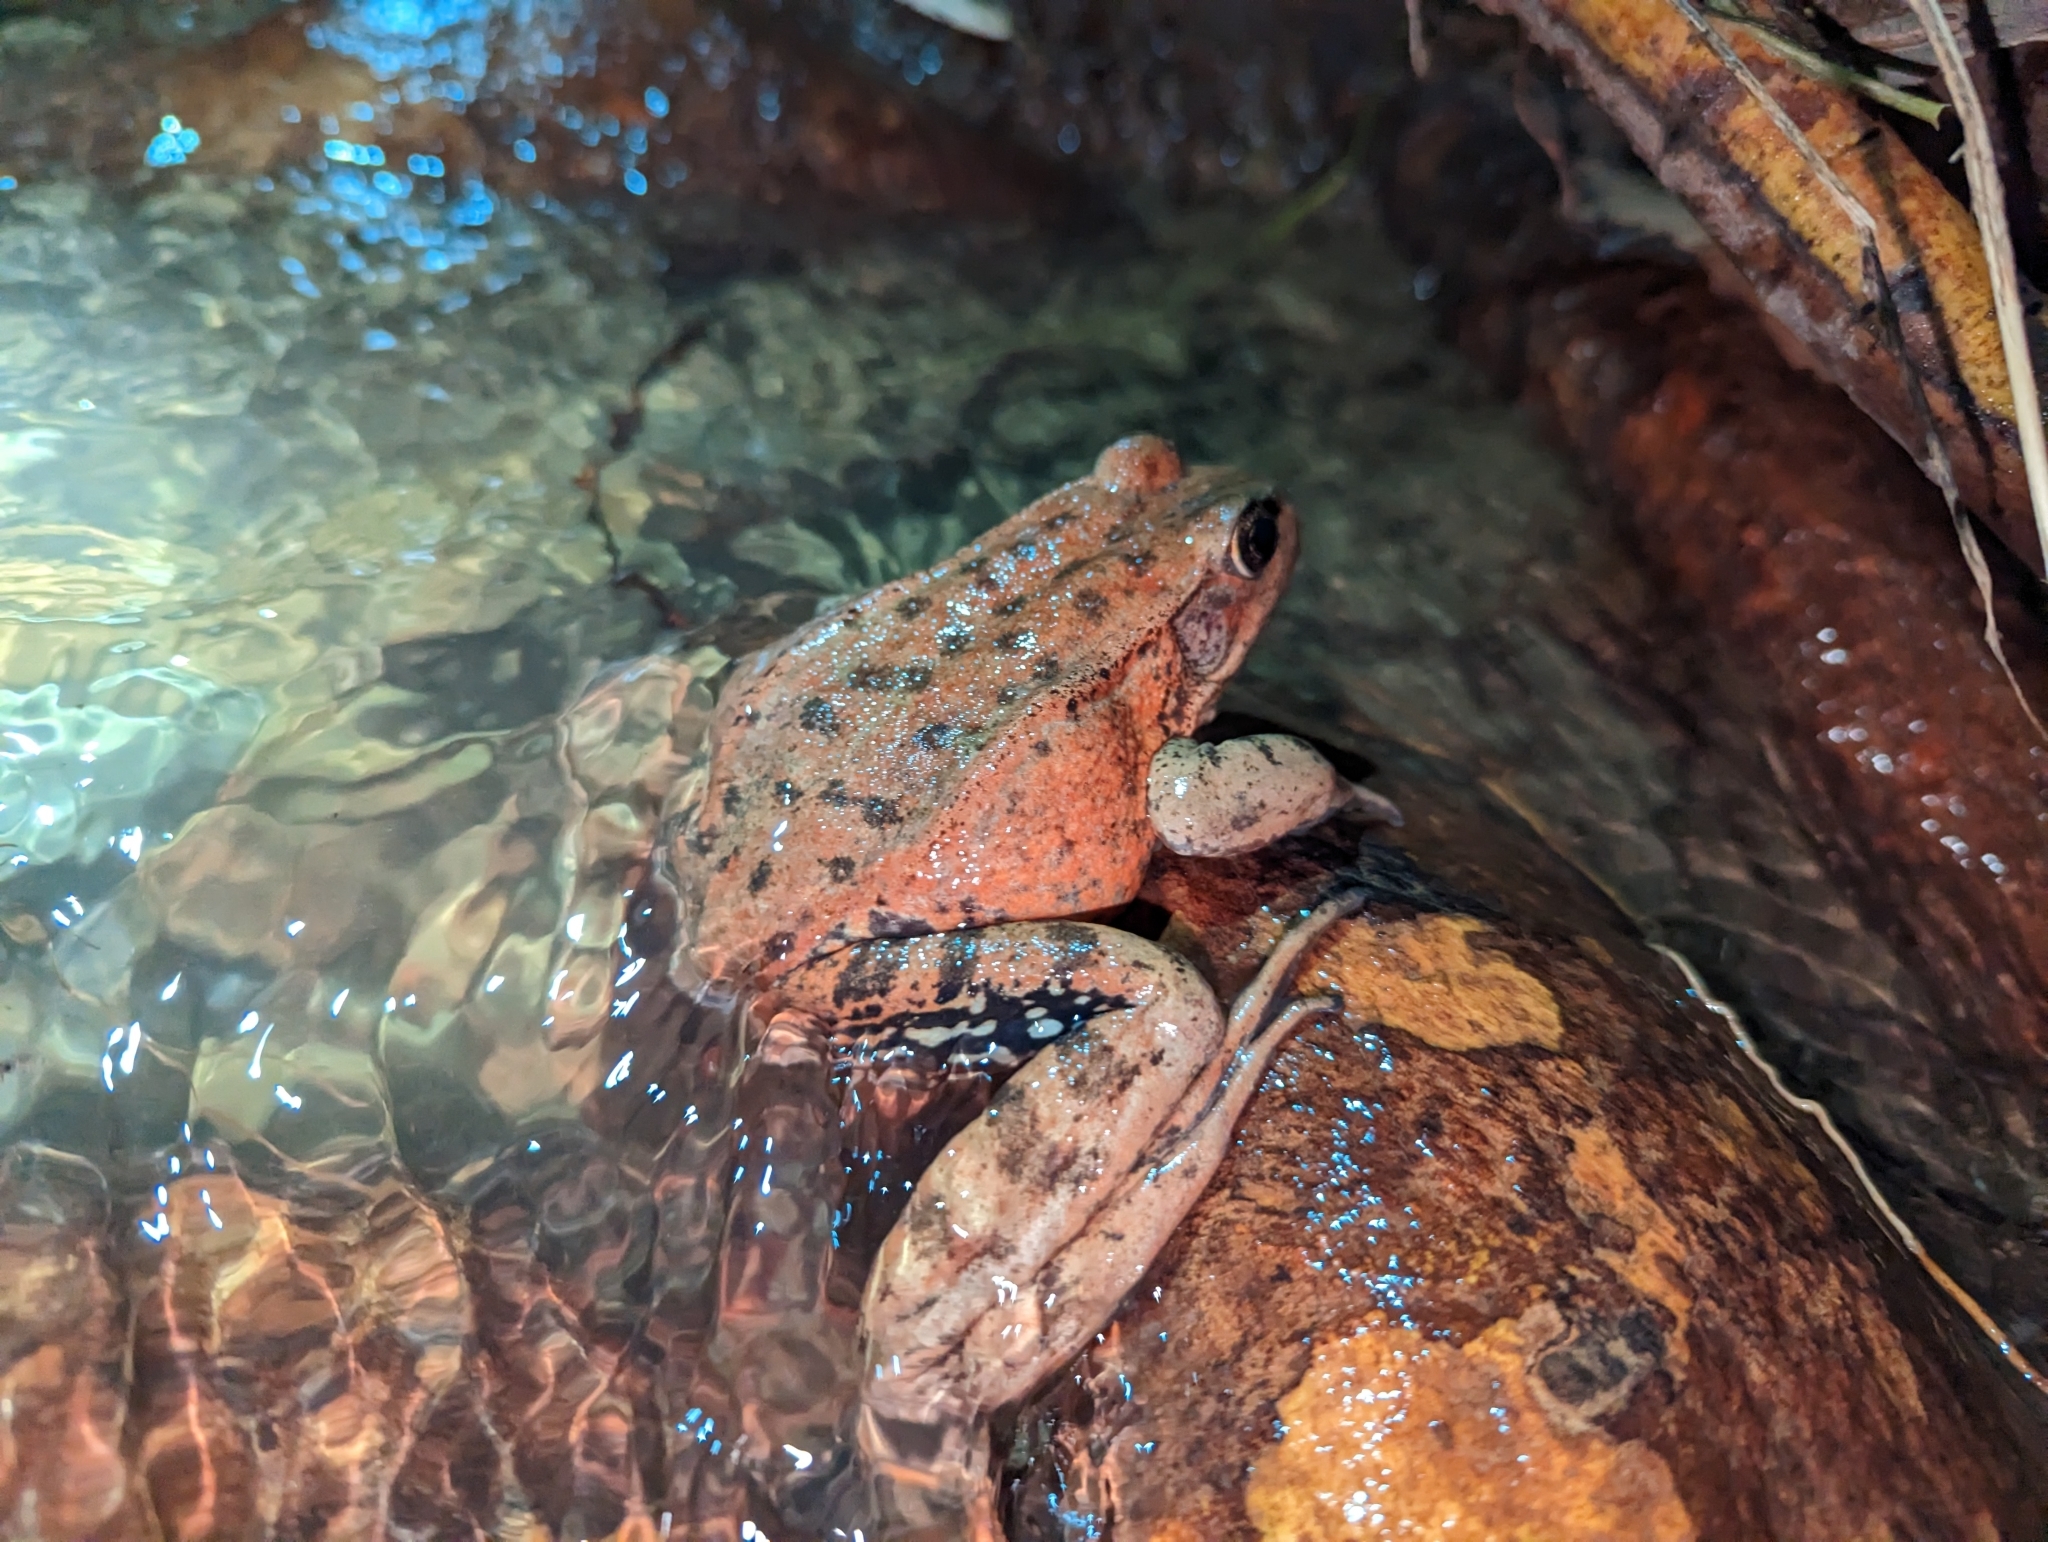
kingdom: Animalia
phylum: Chordata
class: Amphibia
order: Anura
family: Ranidae
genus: Rana
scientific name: Rana draytonii
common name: California red-legged frog
